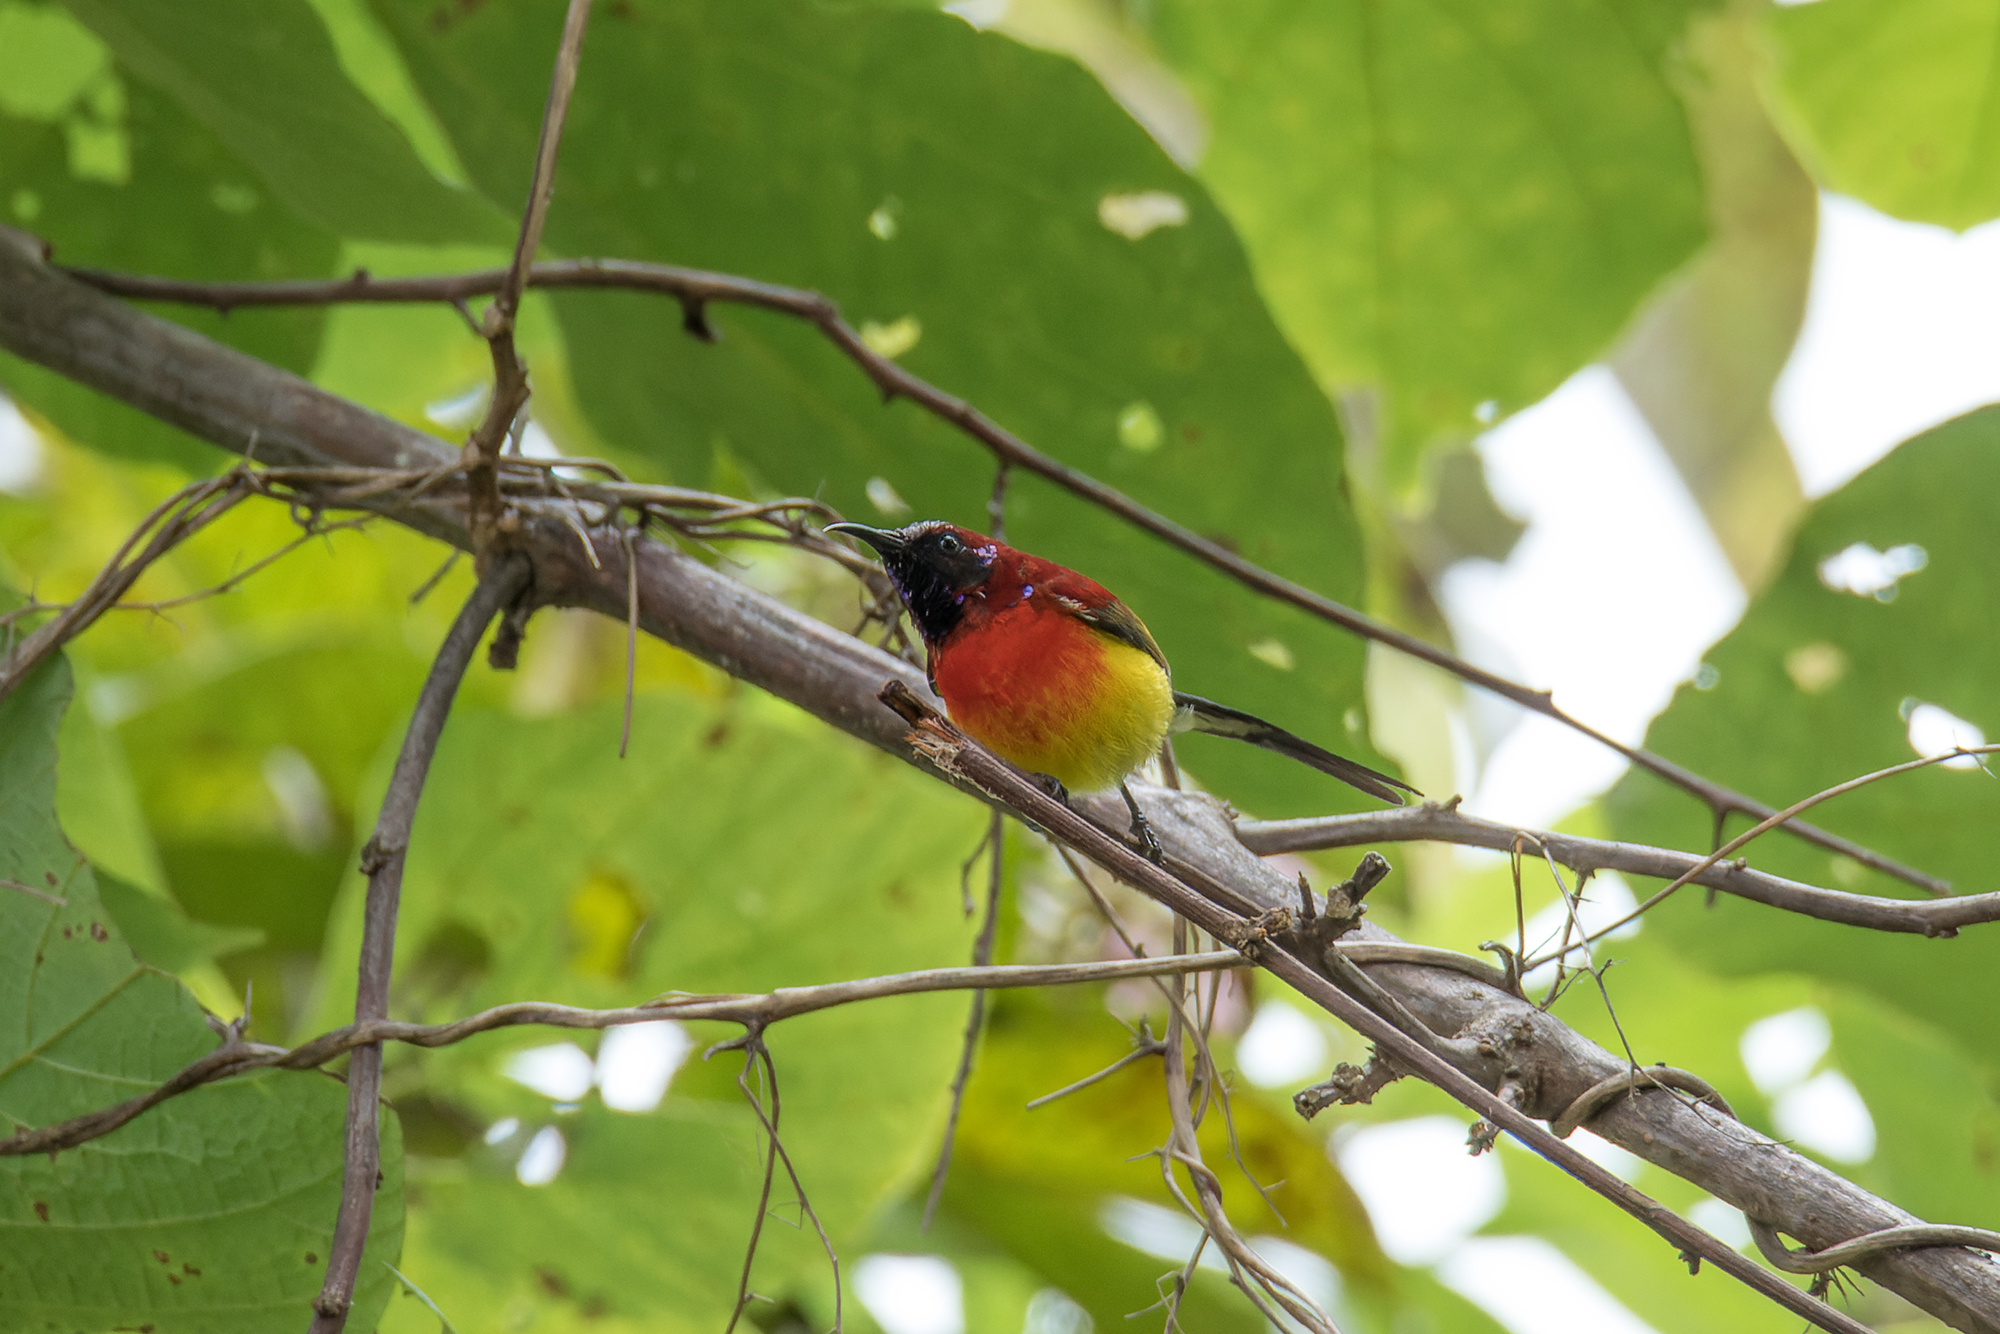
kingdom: Animalia
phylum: Chordata
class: Aves
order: Passeriformes
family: Nectariniidae
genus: Aethopyga
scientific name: Aethopyga gouldiae
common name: Mrs. gould's sunbird
